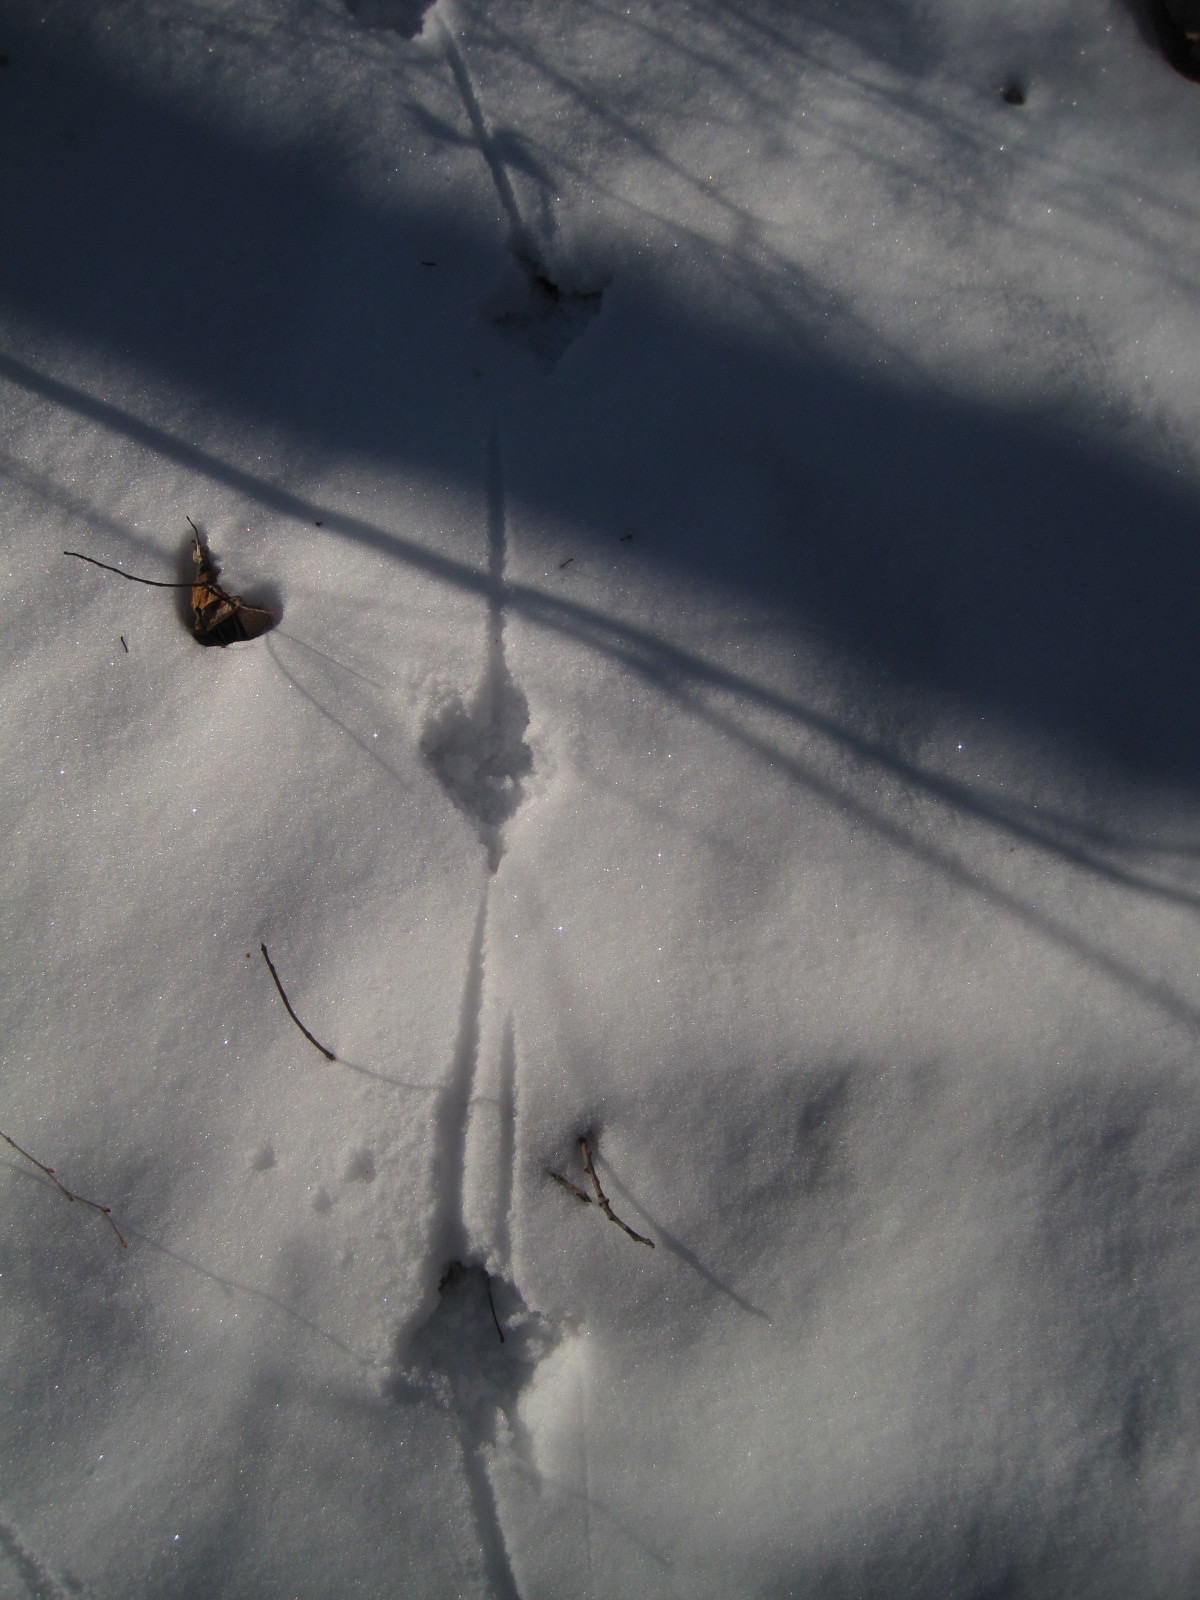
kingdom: Animalia
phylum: Chordata
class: Aves
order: Galliformes
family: Phasianidae
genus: Meleagris
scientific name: Meleagris gallopavo
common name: Wild turkey
